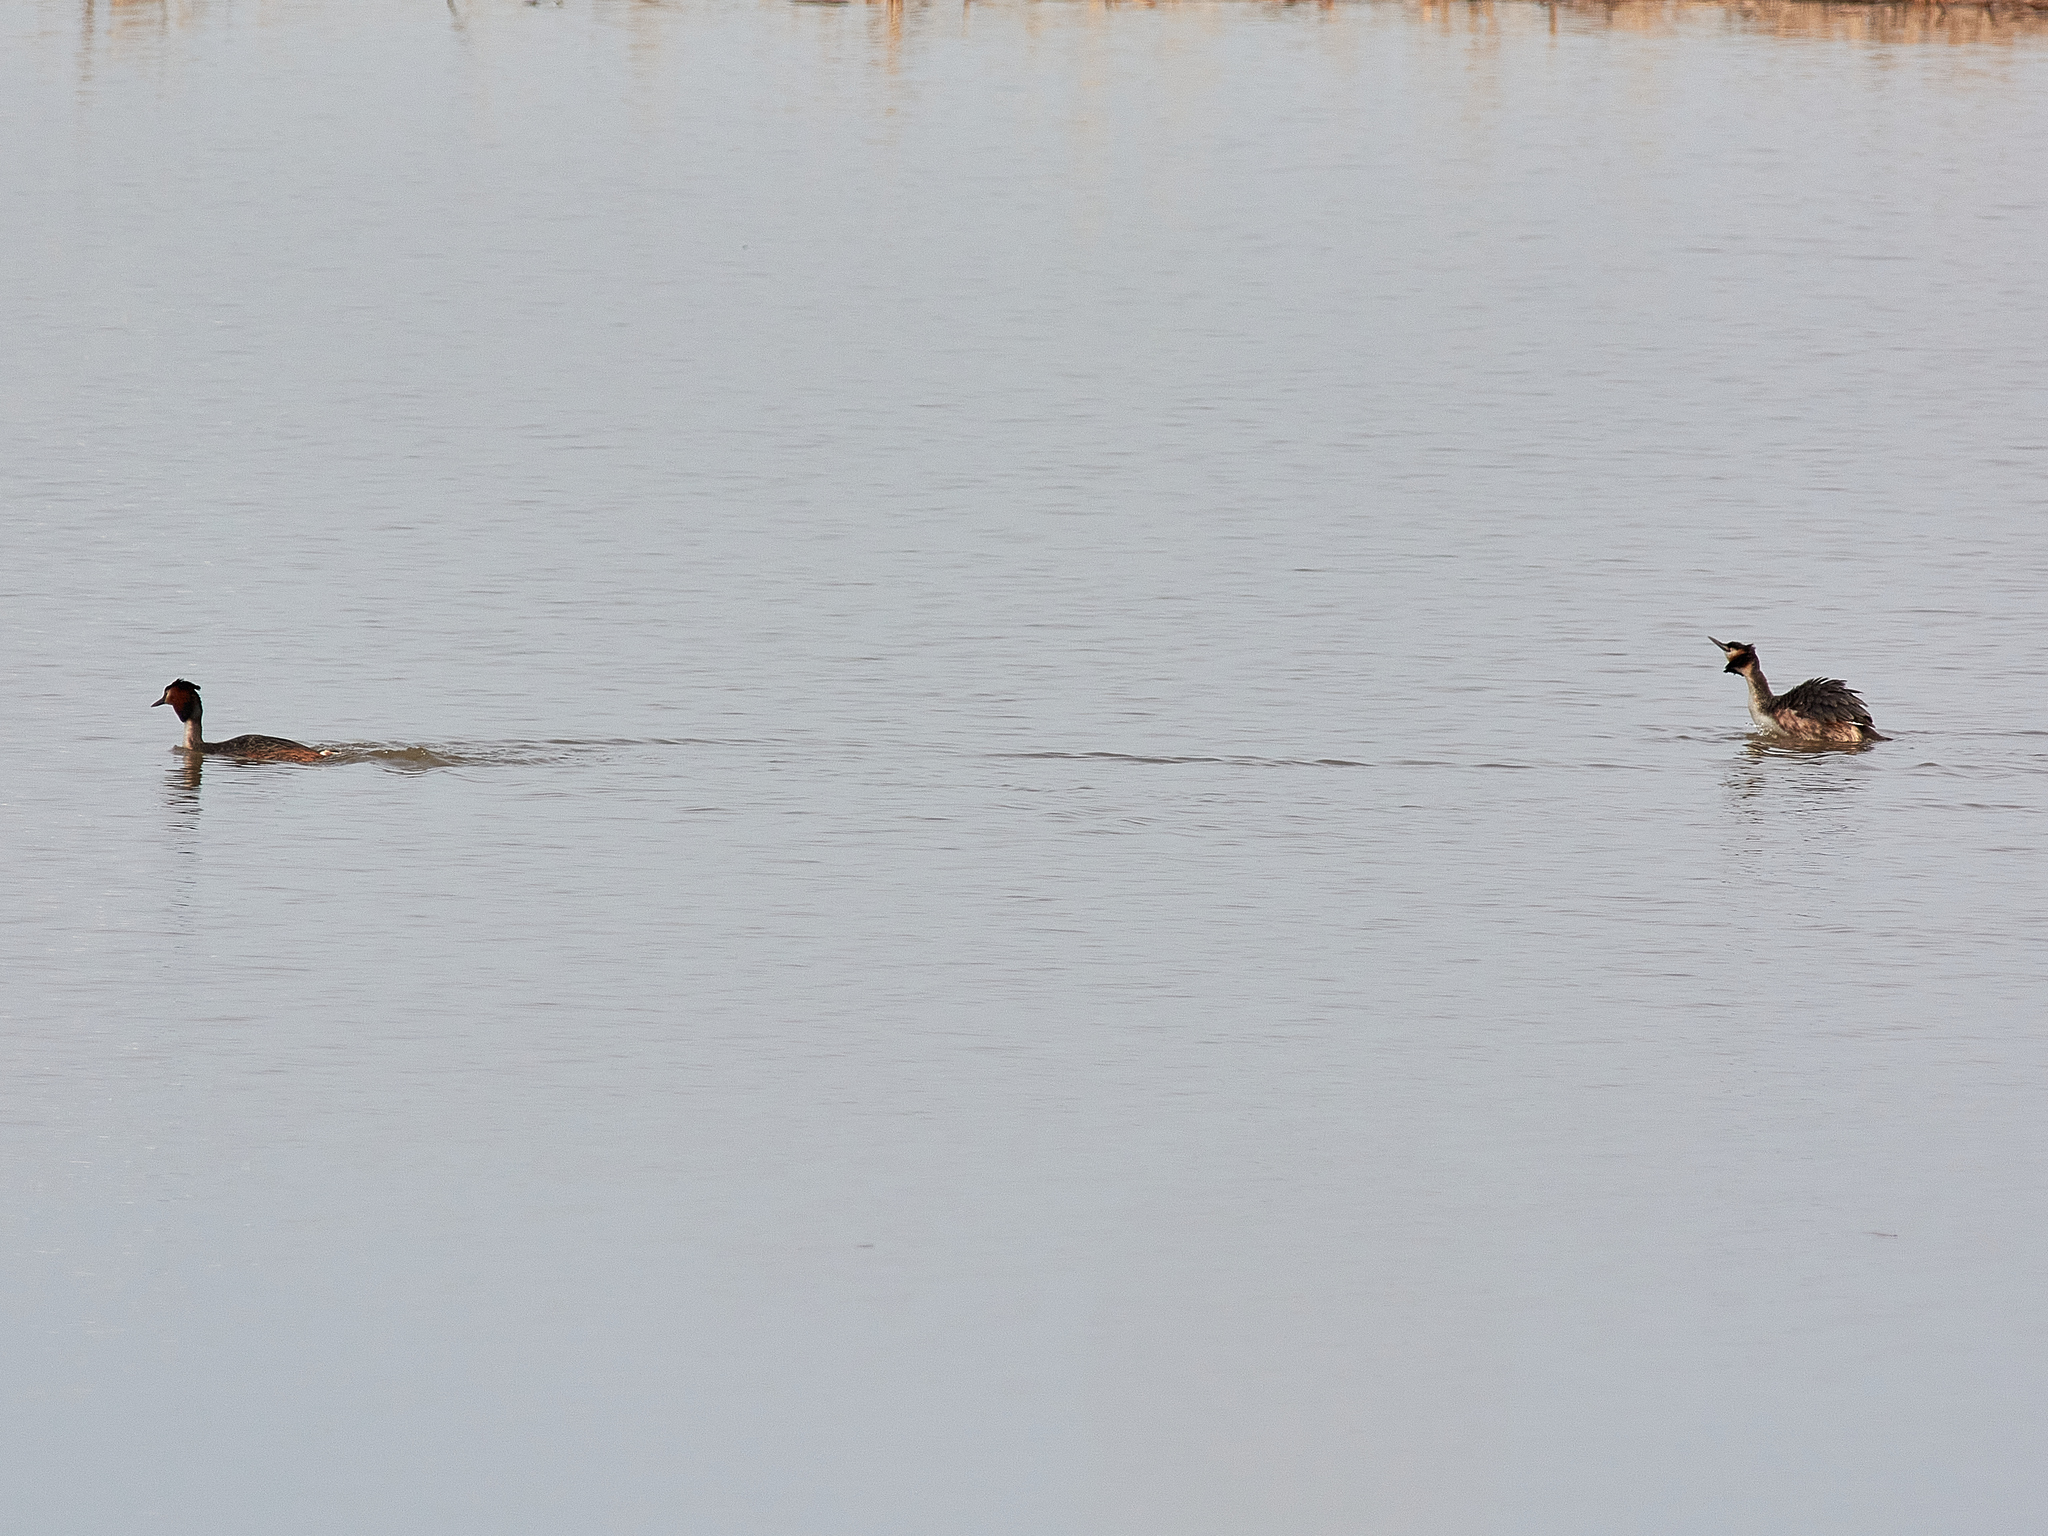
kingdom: Animalia
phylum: Chordata
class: Aves
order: Podicipediformes
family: Podicipedidae
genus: Podiceps
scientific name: Podiceps cristatus
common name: Great crested grebe
